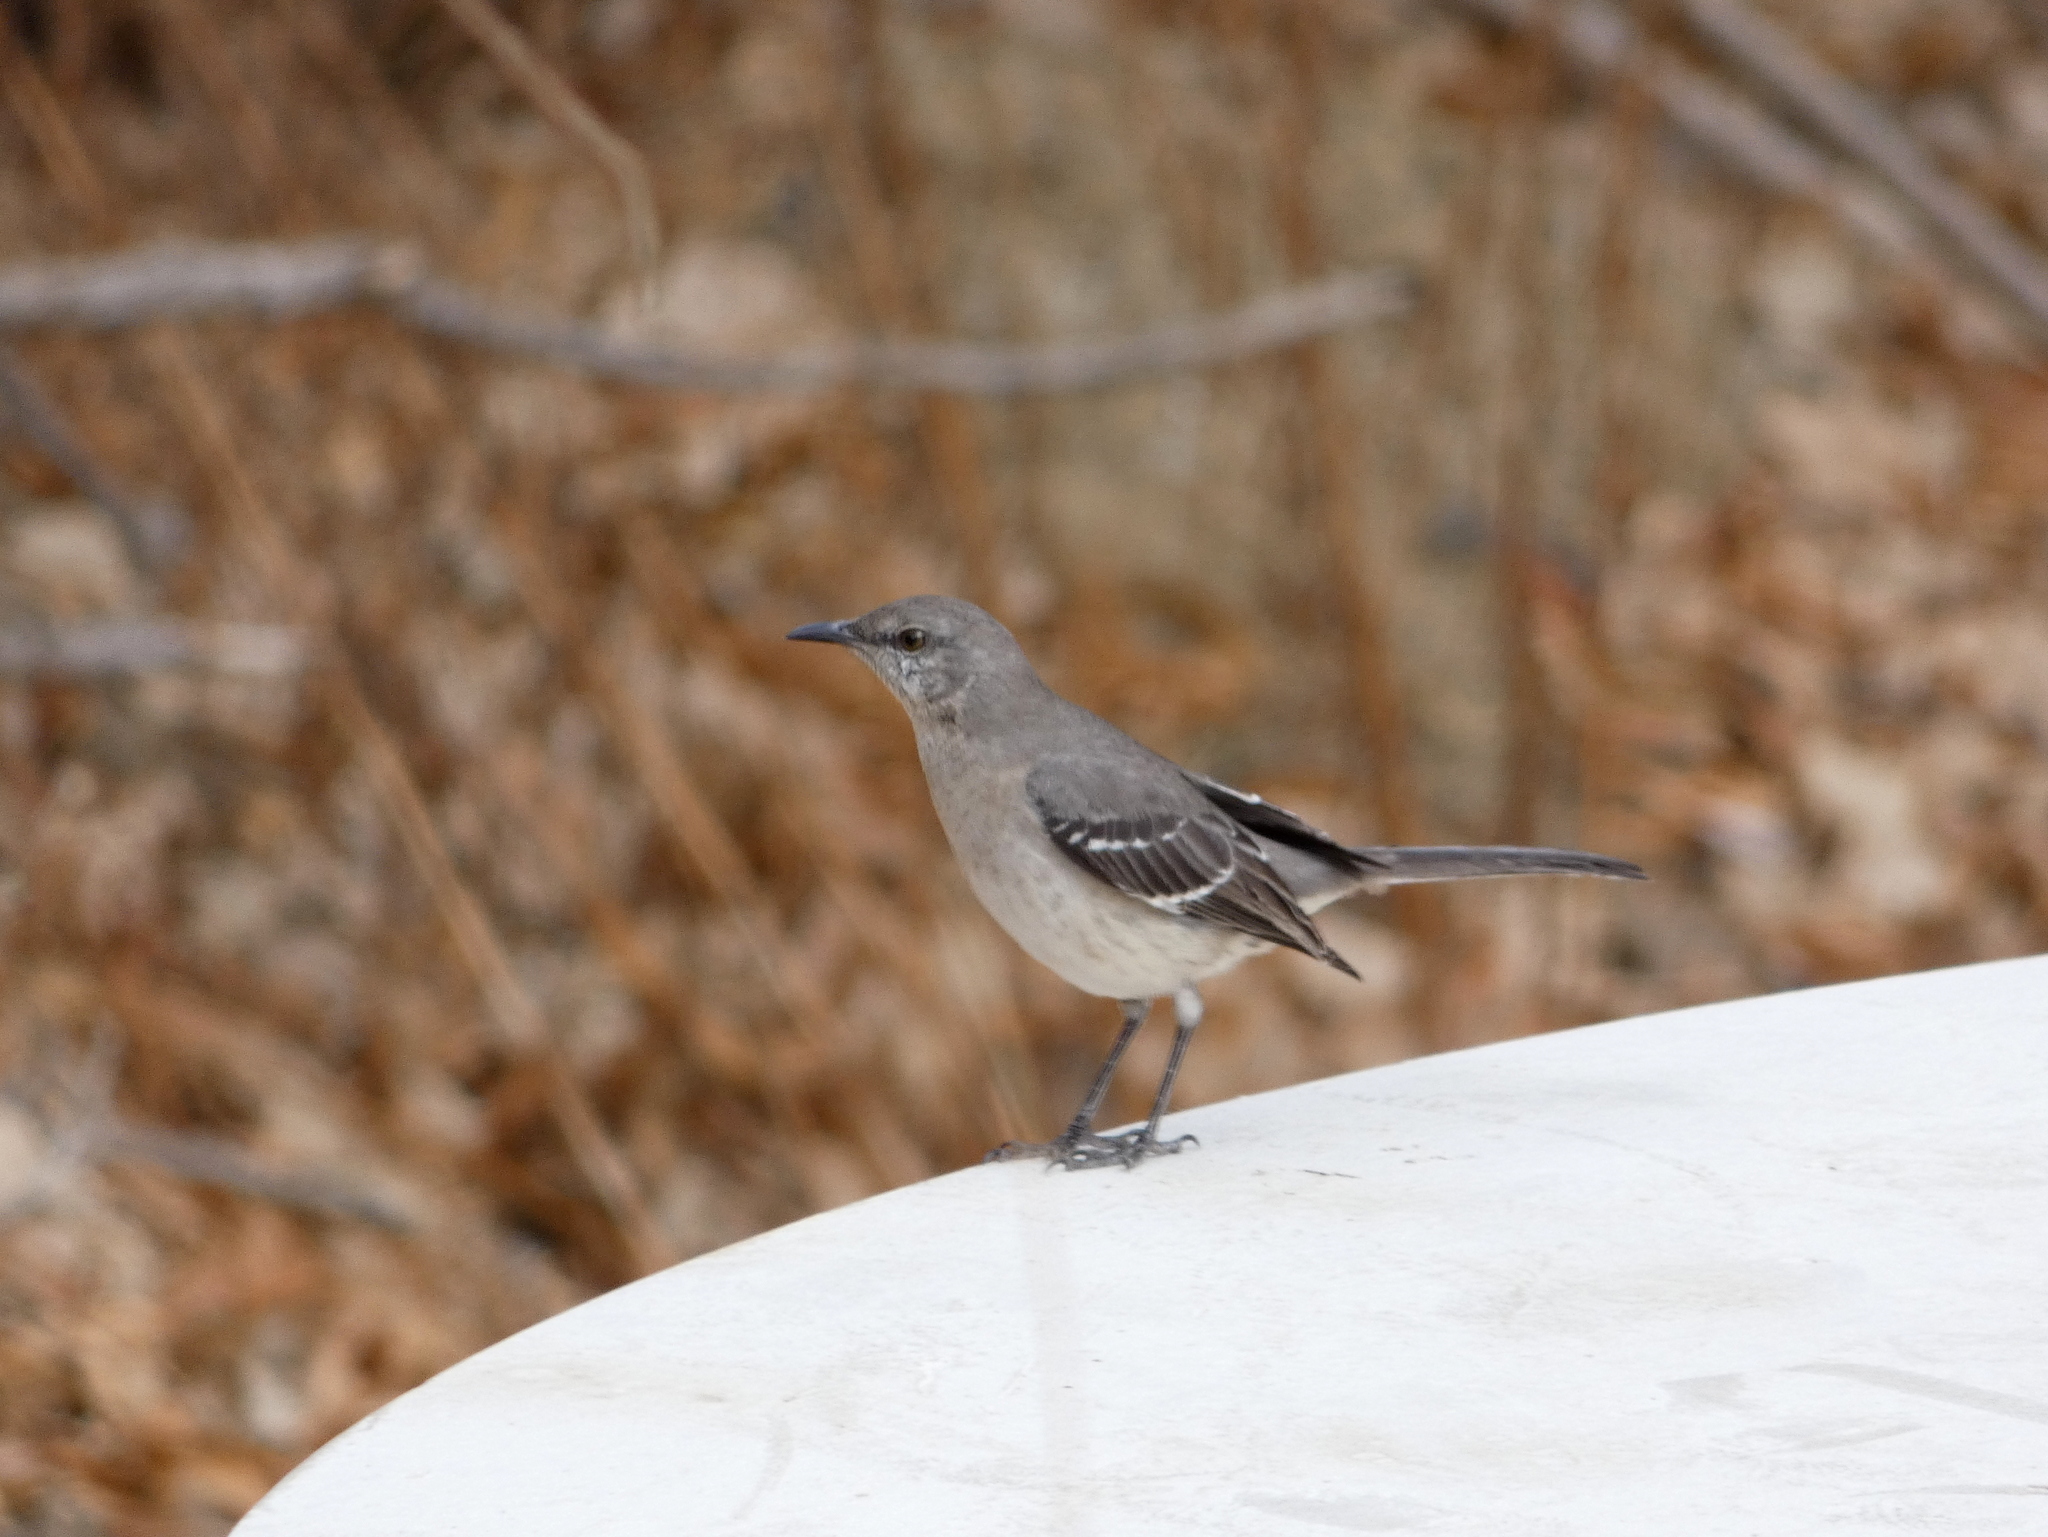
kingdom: Animalia
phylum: Chordata
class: Aves
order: Passeriformes
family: Mimidae
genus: Mimus
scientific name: Mimus polyglottos
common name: Northern mockingbird
